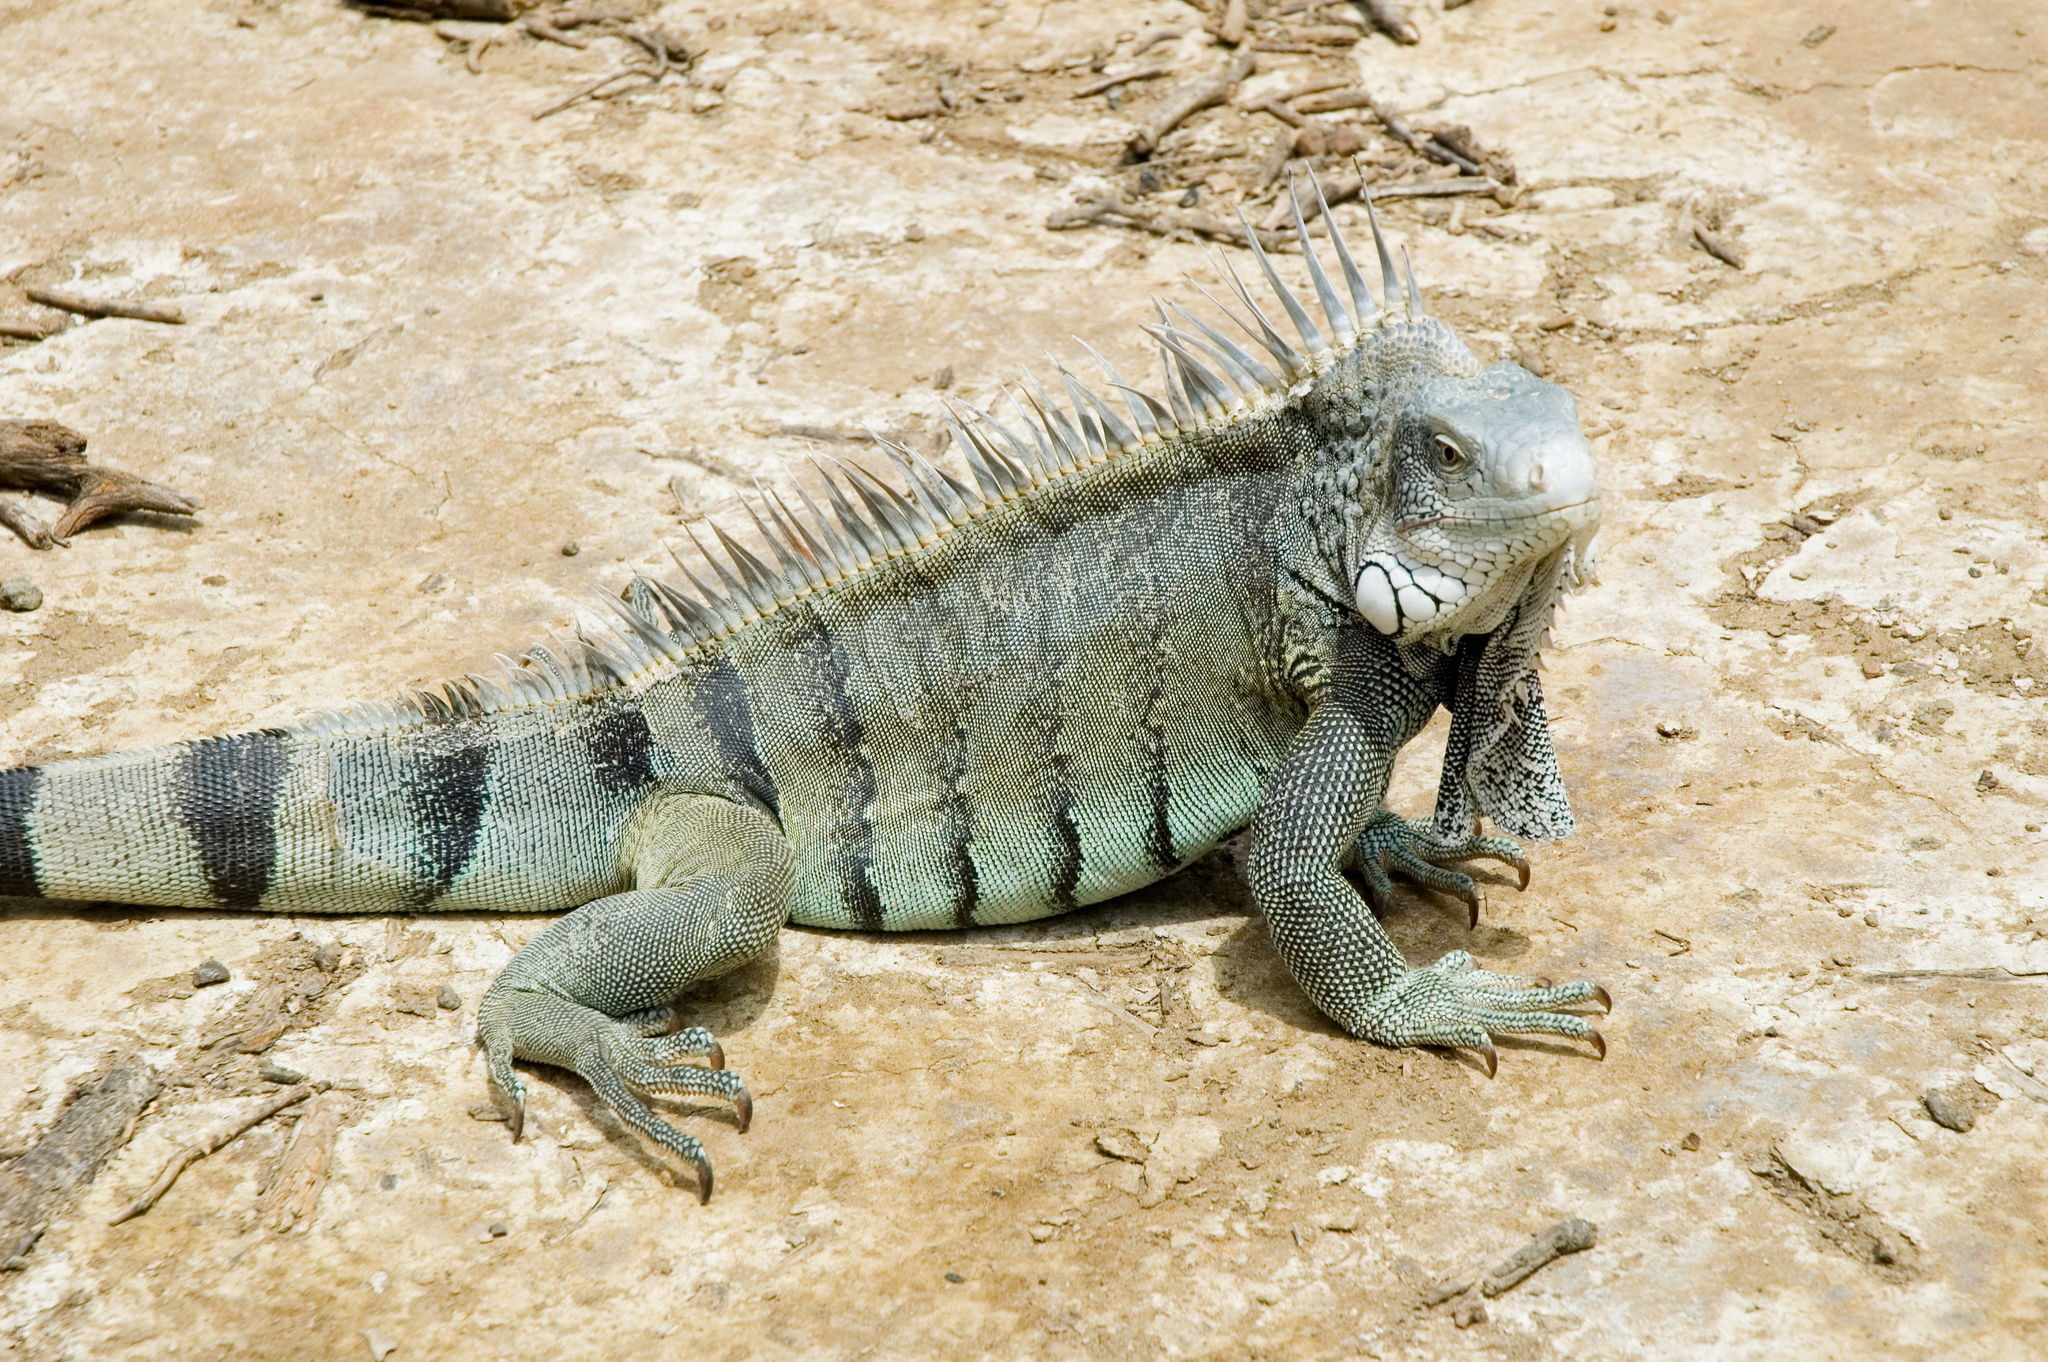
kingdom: Animalia
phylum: Chordata
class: Squamata
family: Iguanidae
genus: Iguana
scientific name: Iguana iguana
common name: Green iguana
